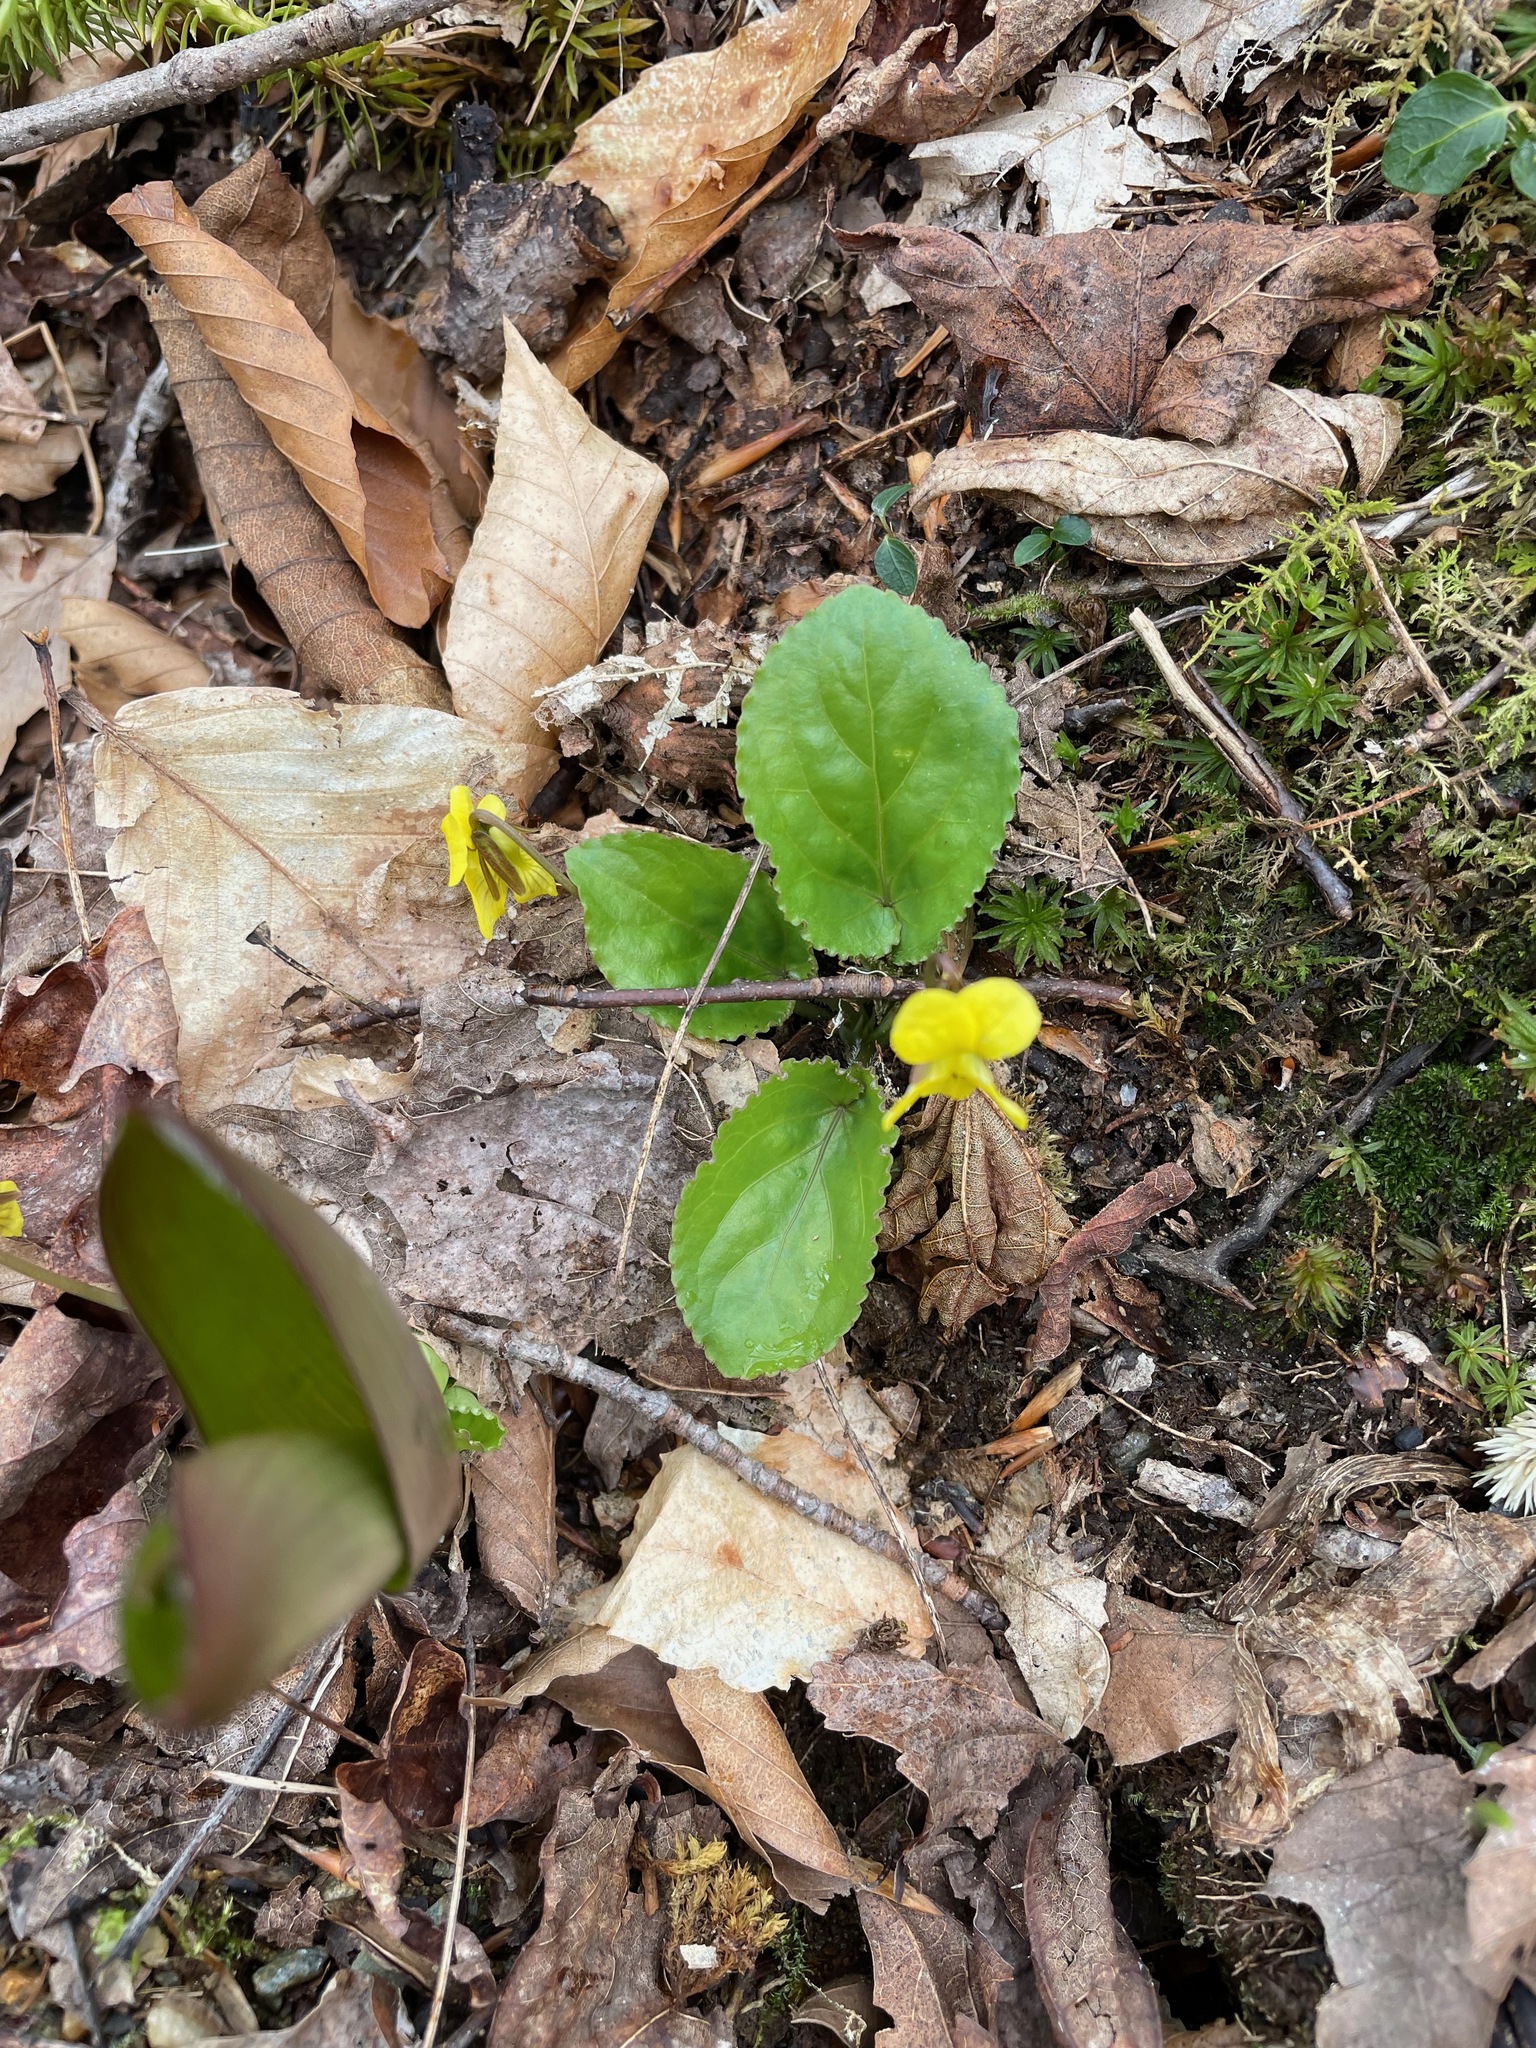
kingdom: Plantae
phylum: Tracheophyta
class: Magnoliopsida
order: Malpighiales
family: Violaceae
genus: Viola
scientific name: Viola rotundifolia
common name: Early yellow violet
